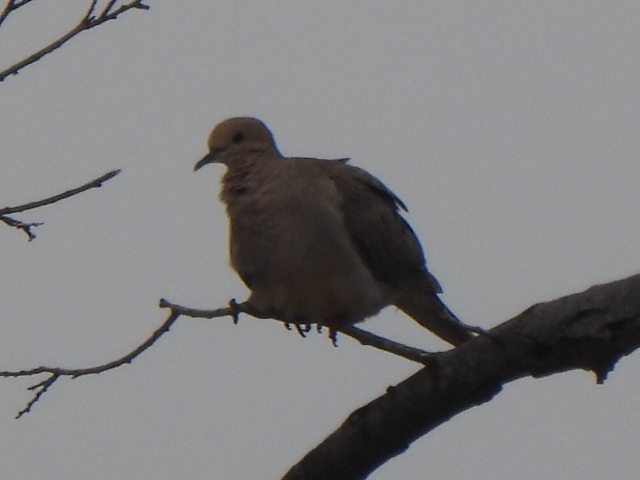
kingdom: Animalia
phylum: Chordata
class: Aves
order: Columbiformes
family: Columbidae
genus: Zenaida
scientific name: Zenaida macroura
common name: Mourning dove
